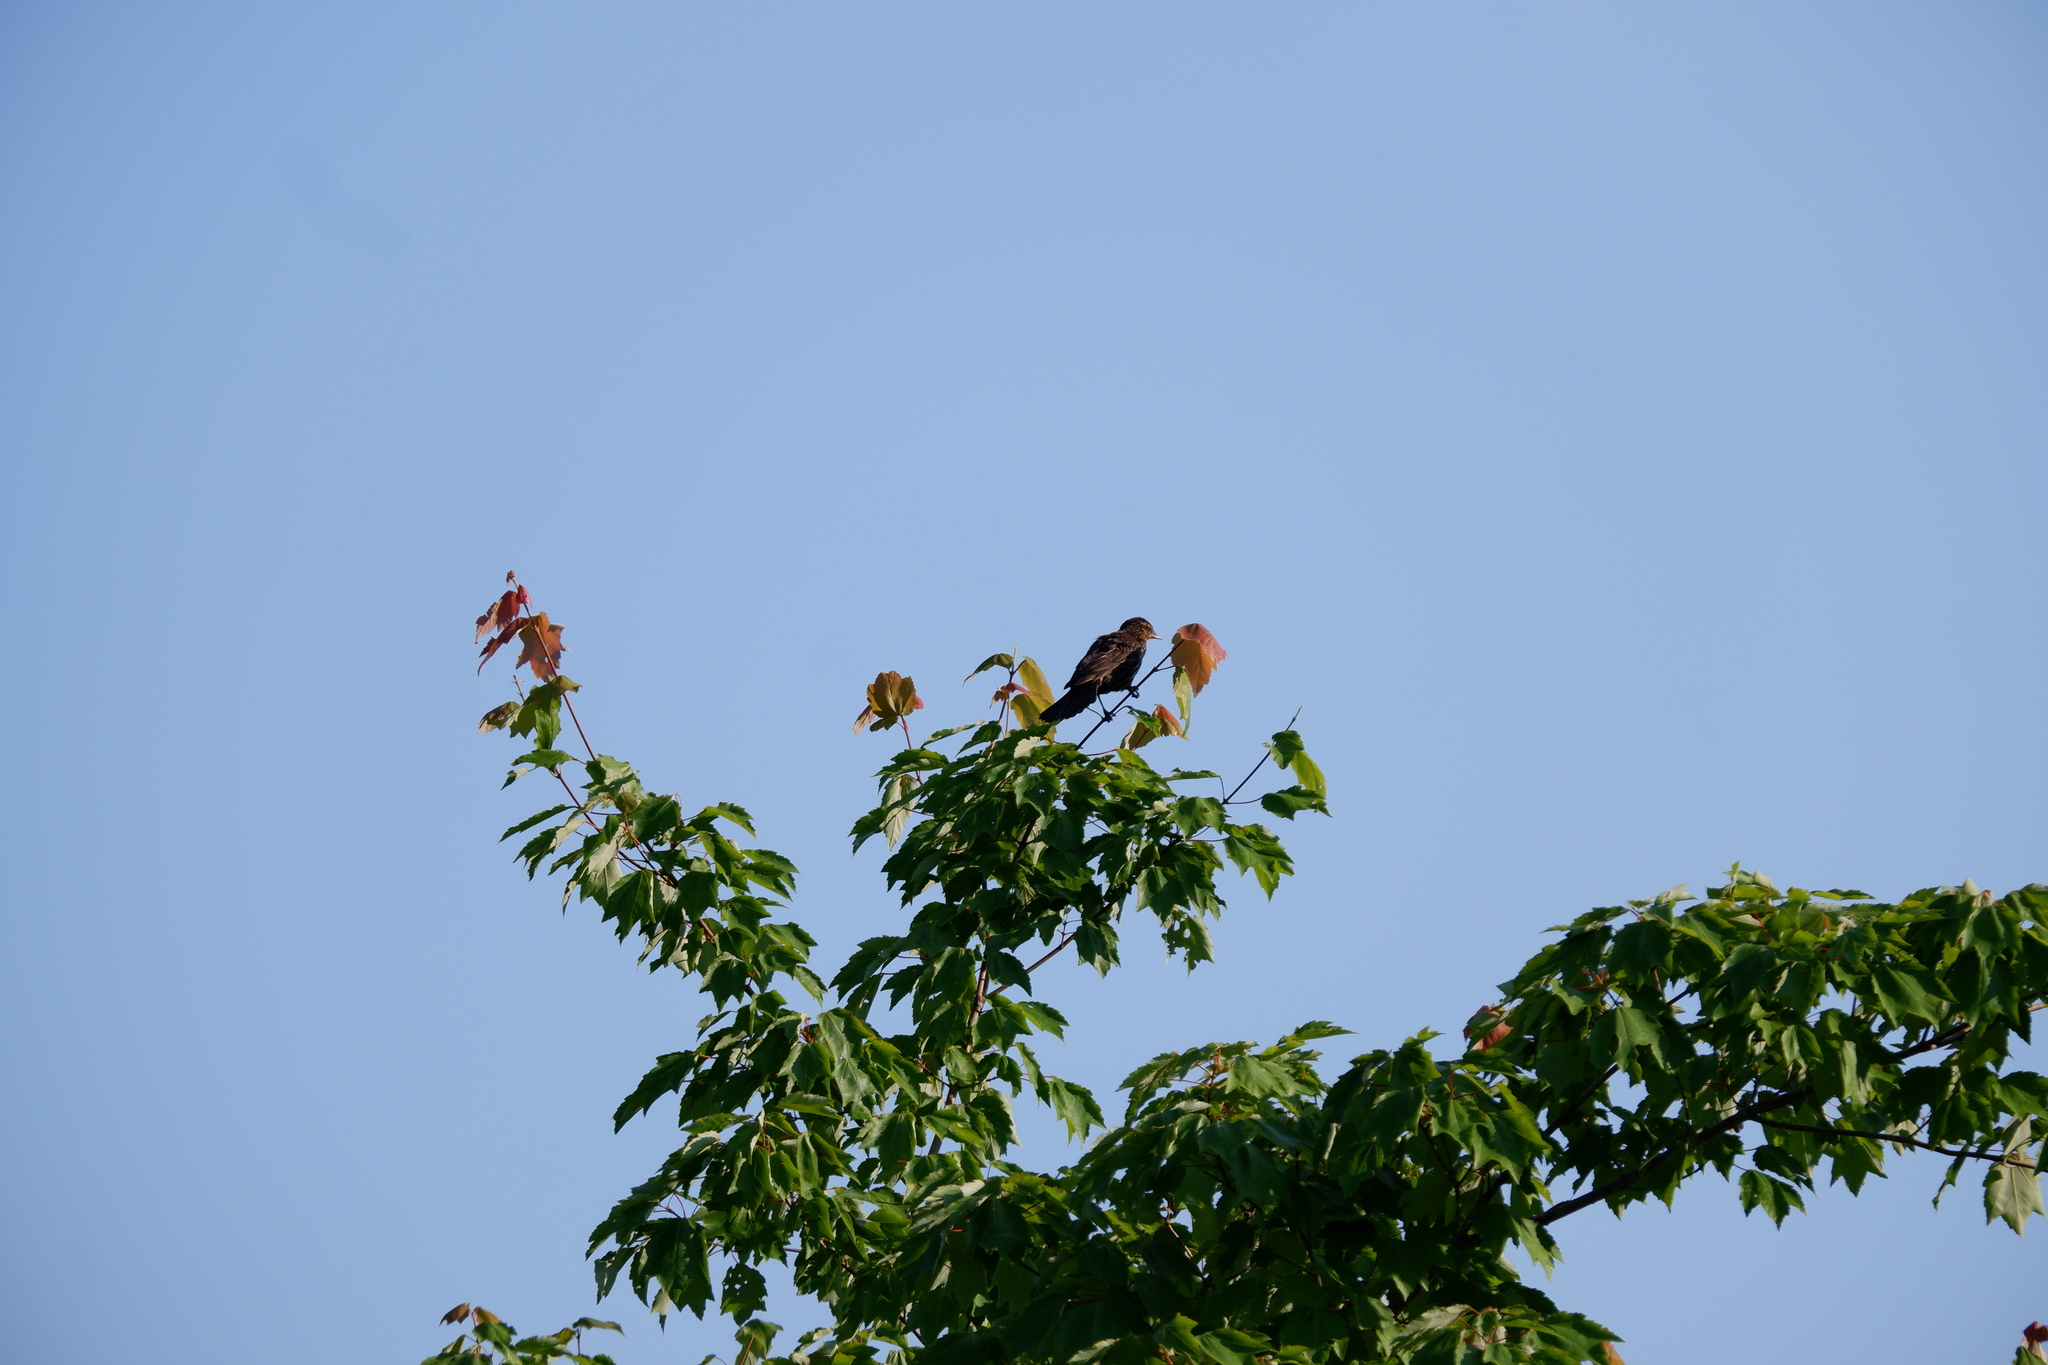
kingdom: Animalia
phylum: Chordata
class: Aves
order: Passeriformes
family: Icteridae
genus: Agelaius
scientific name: Agelaius phoeniceus
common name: Red-winged blackbird
